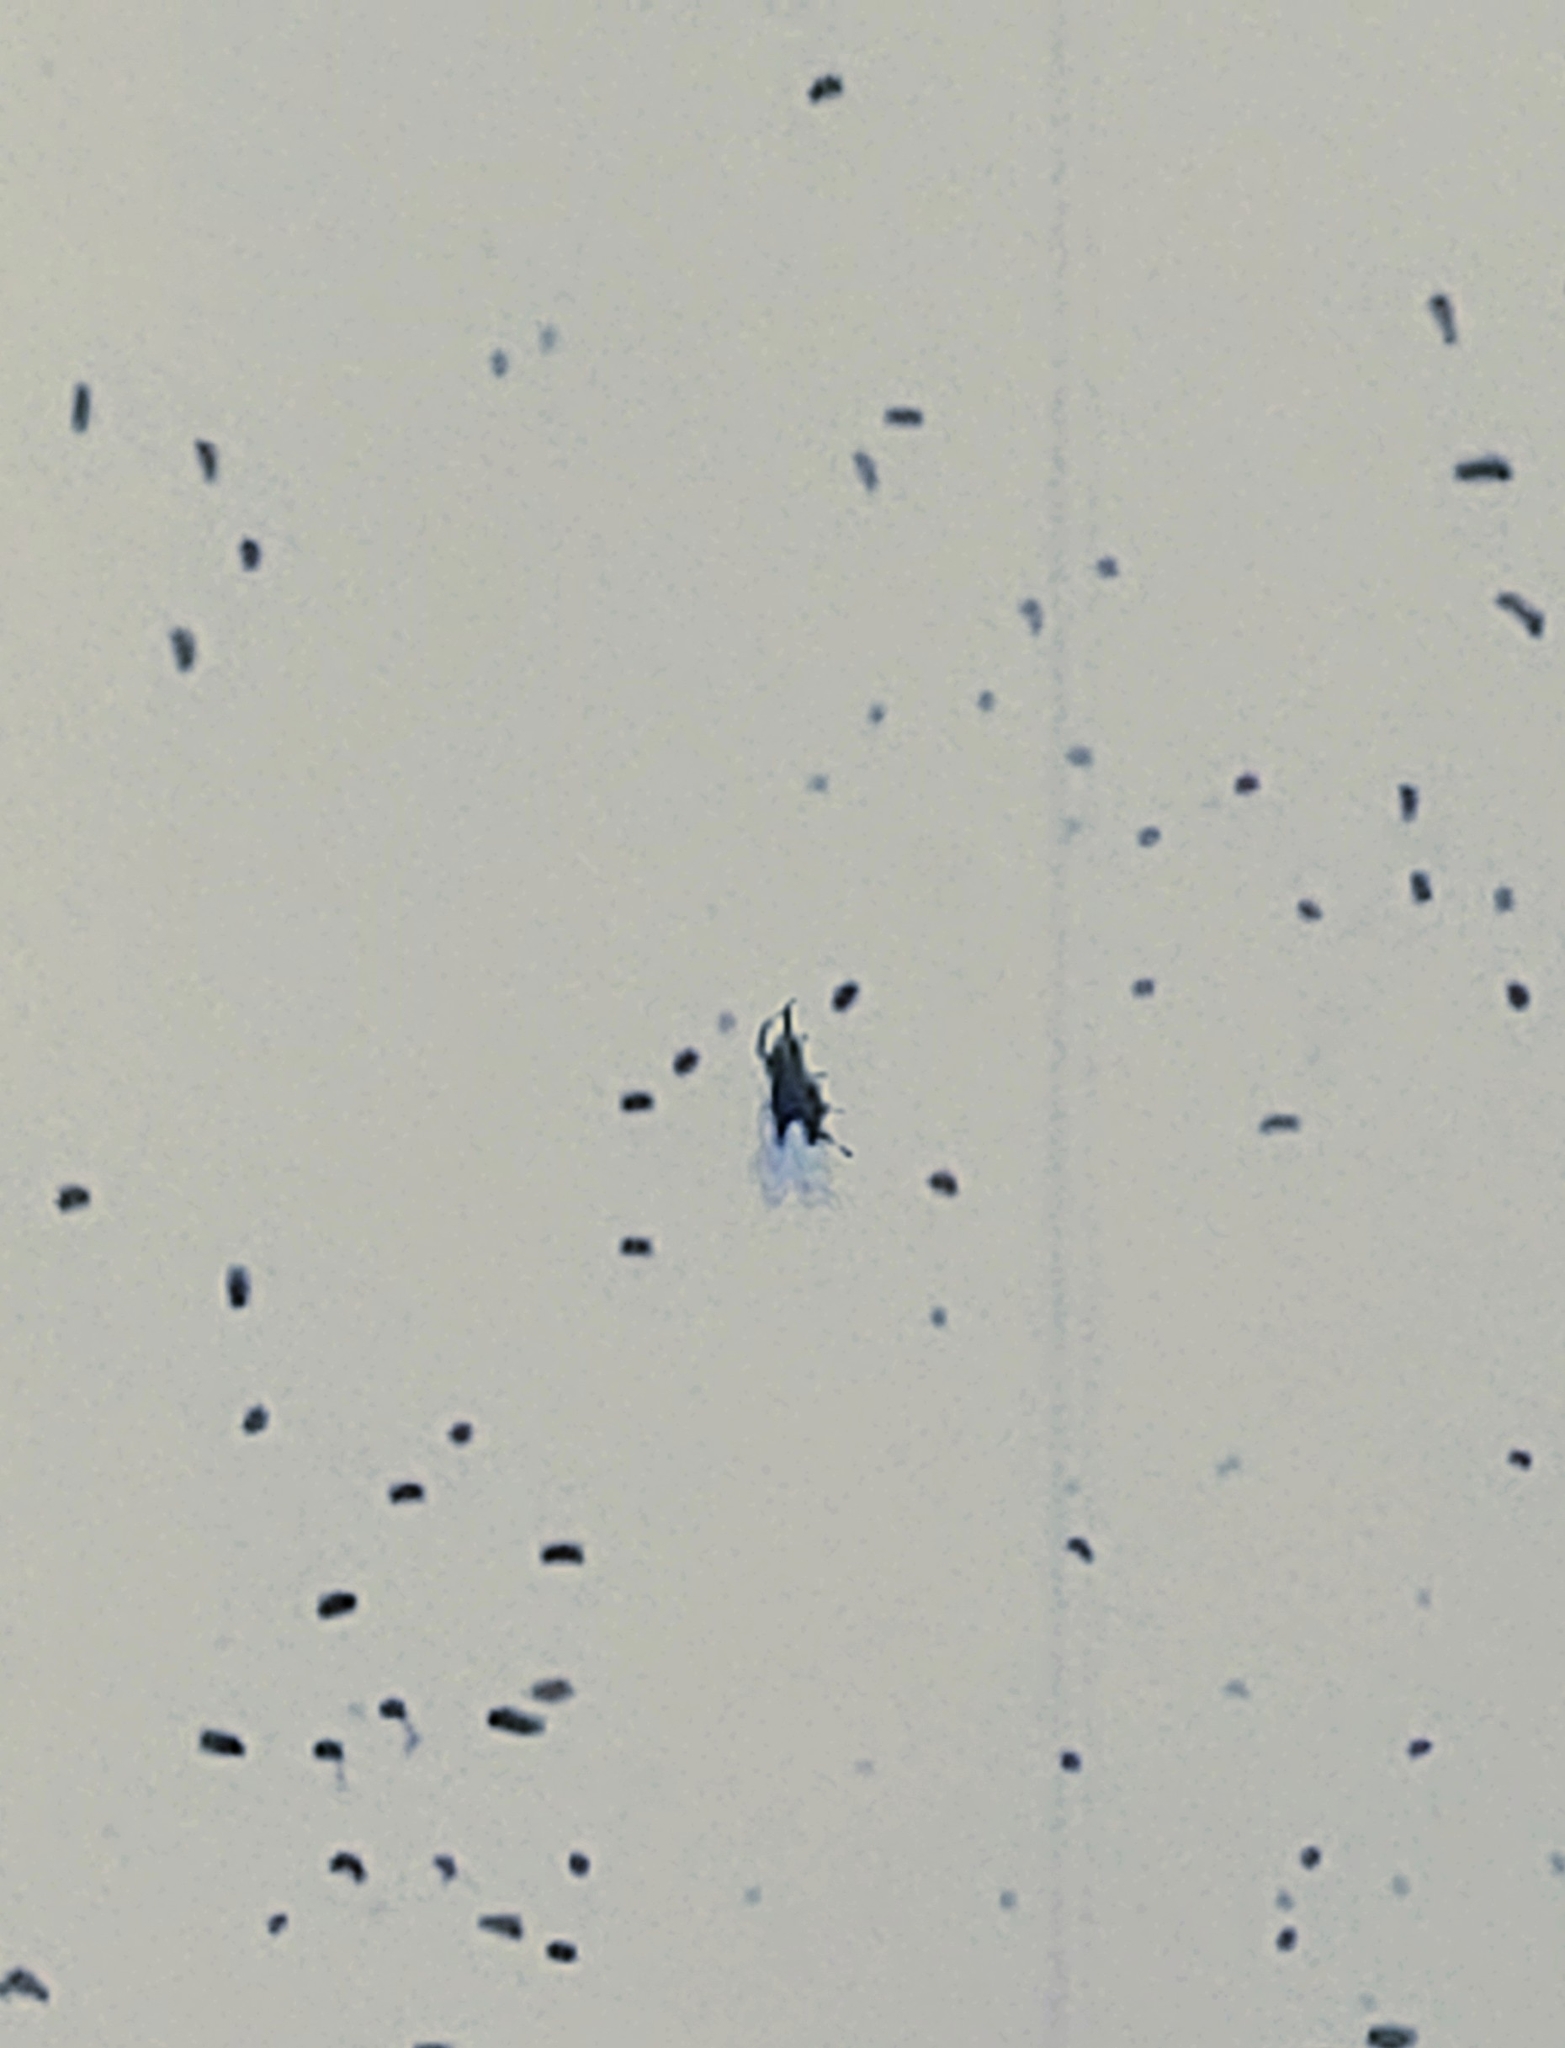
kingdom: Animalia
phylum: Arthropoda
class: Arachnida
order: Araneae
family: Araneidae
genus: Gasteracantha
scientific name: Gasteracantha cancriformis
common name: Orb weavers
